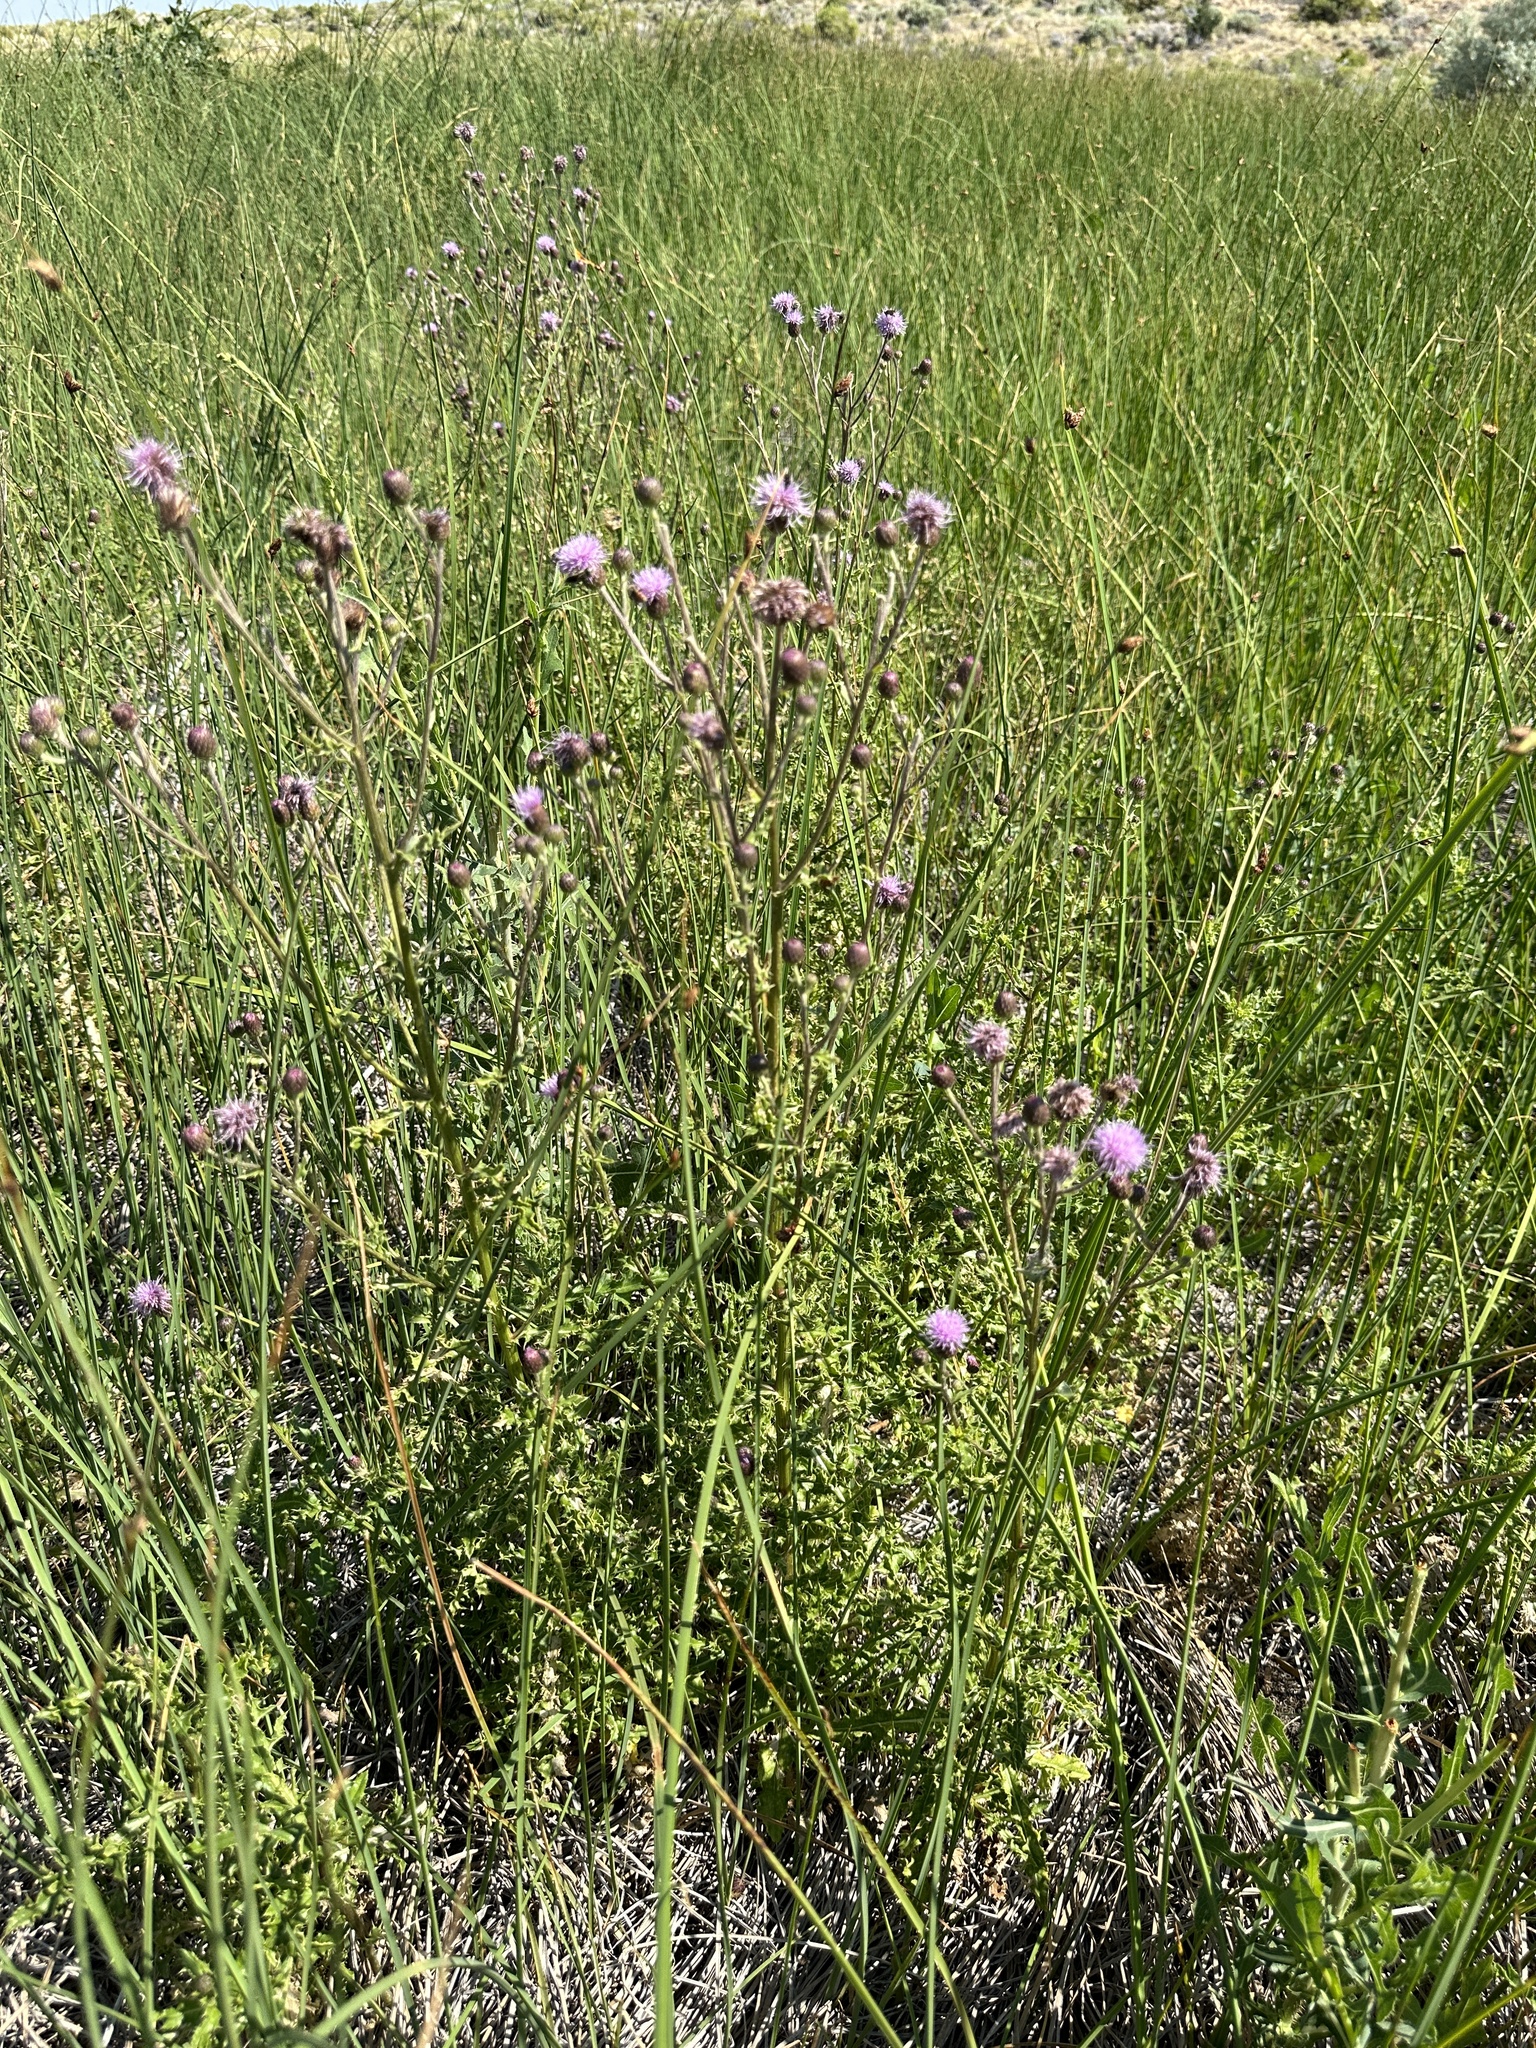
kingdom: Plantae
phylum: Tracheophyta
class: Magnoliopsida
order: Asterales
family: Asteraceae
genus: Cirsium
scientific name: Cirsium arvense
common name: Creeping thistle
